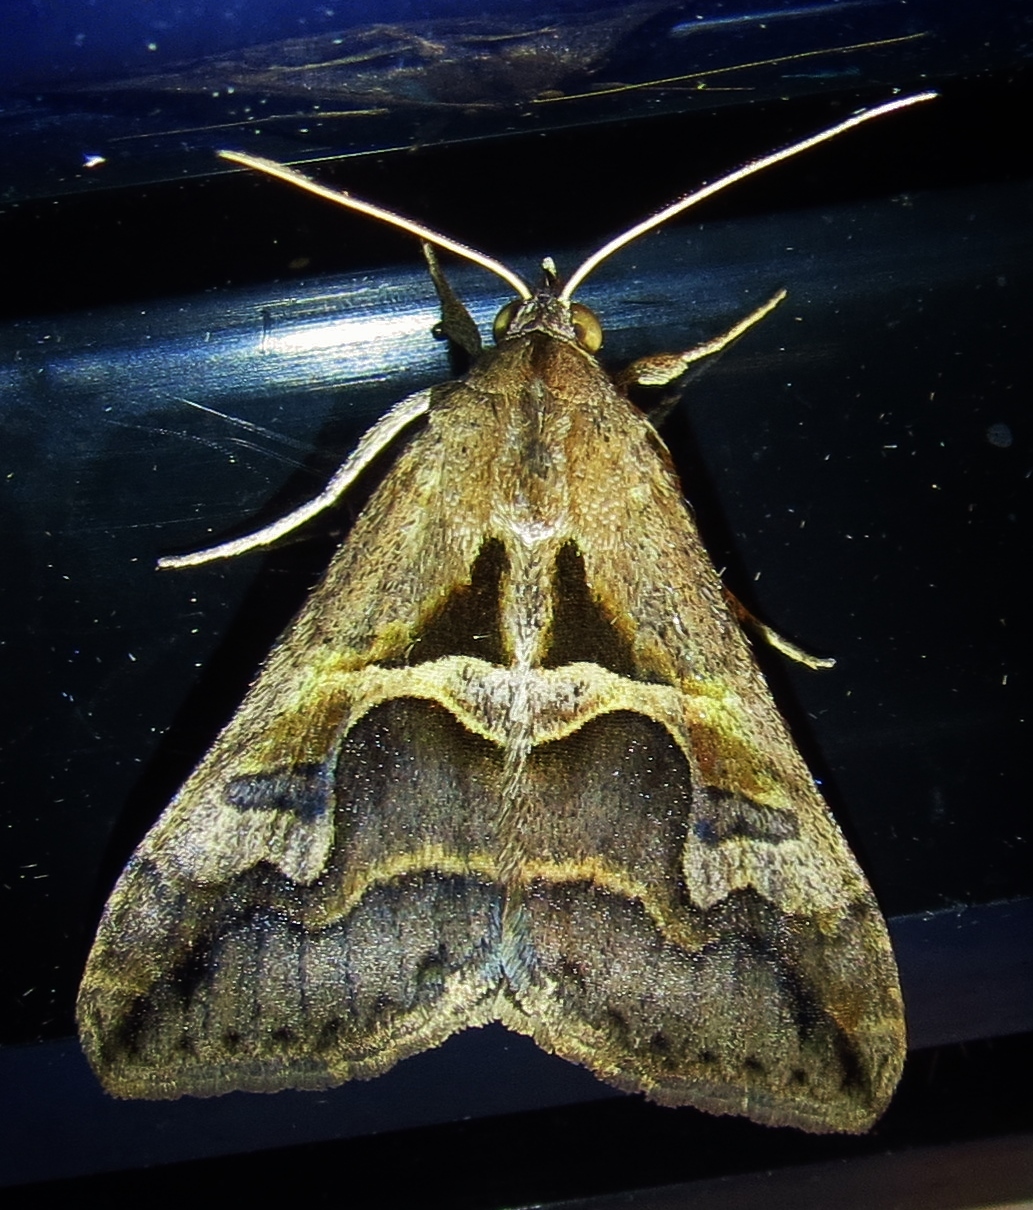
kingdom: Animalia
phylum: Arthropoda
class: Insecta
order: Lepidoptera
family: Erebidae
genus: Melipotis
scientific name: Melipotis cellaris
